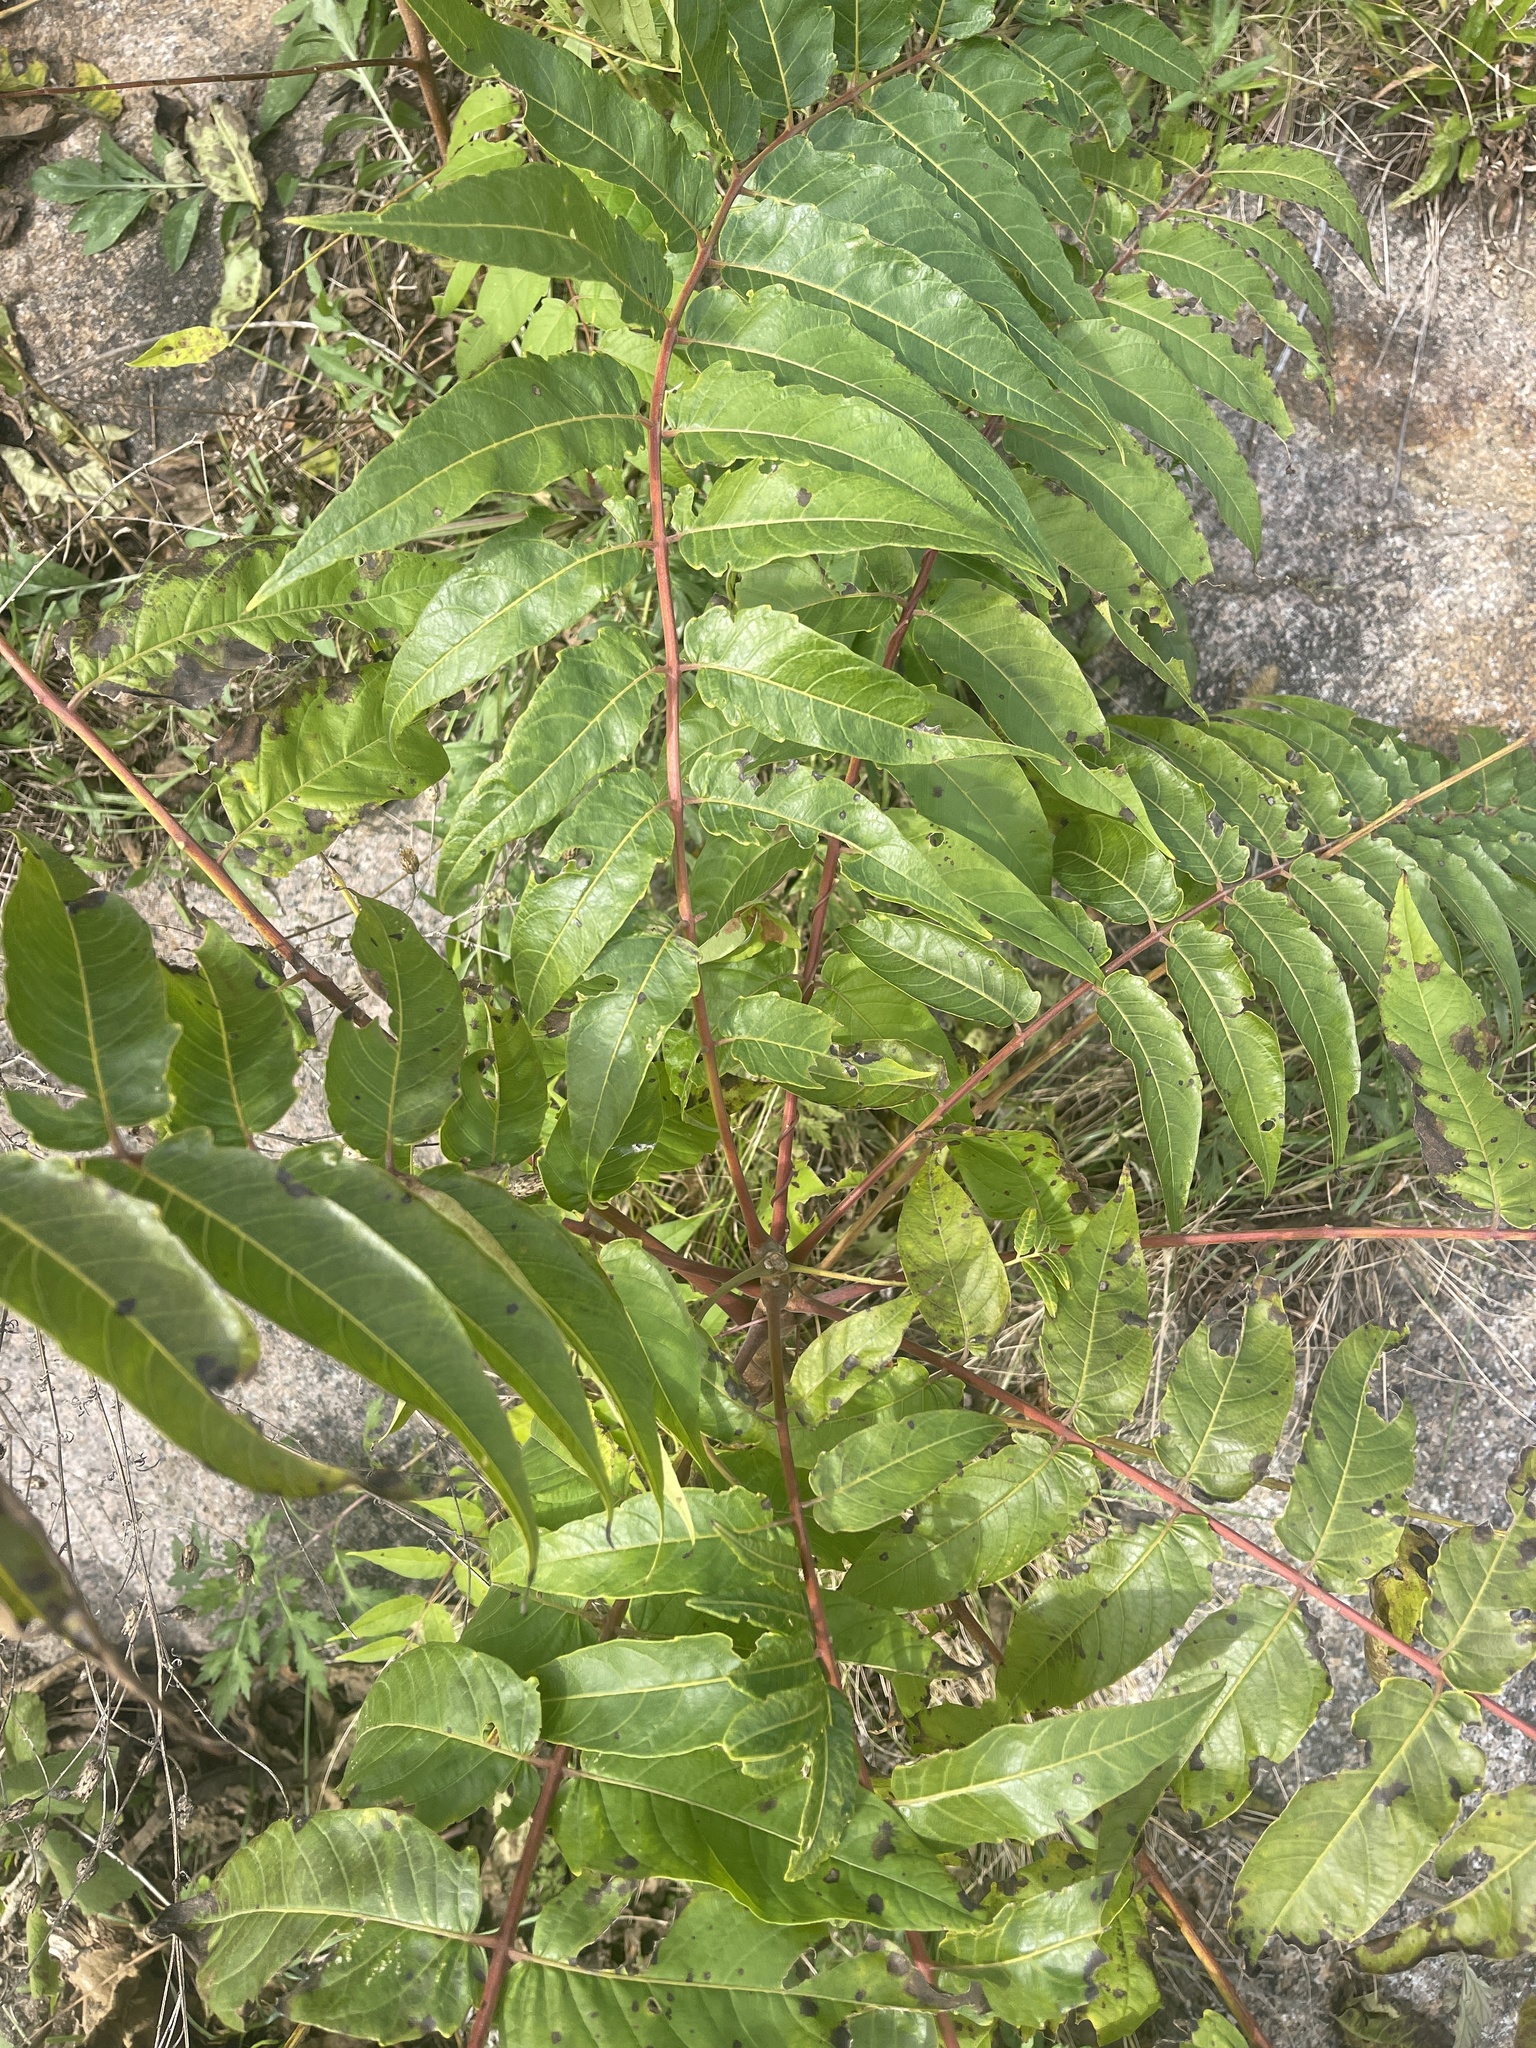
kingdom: Plantae
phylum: Tracheophyta
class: Magnoliopsida
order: Sapindales
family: Simaroubaceae
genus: Ailanthus
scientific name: Ailanthus altissima
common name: Tree-of-heaven
